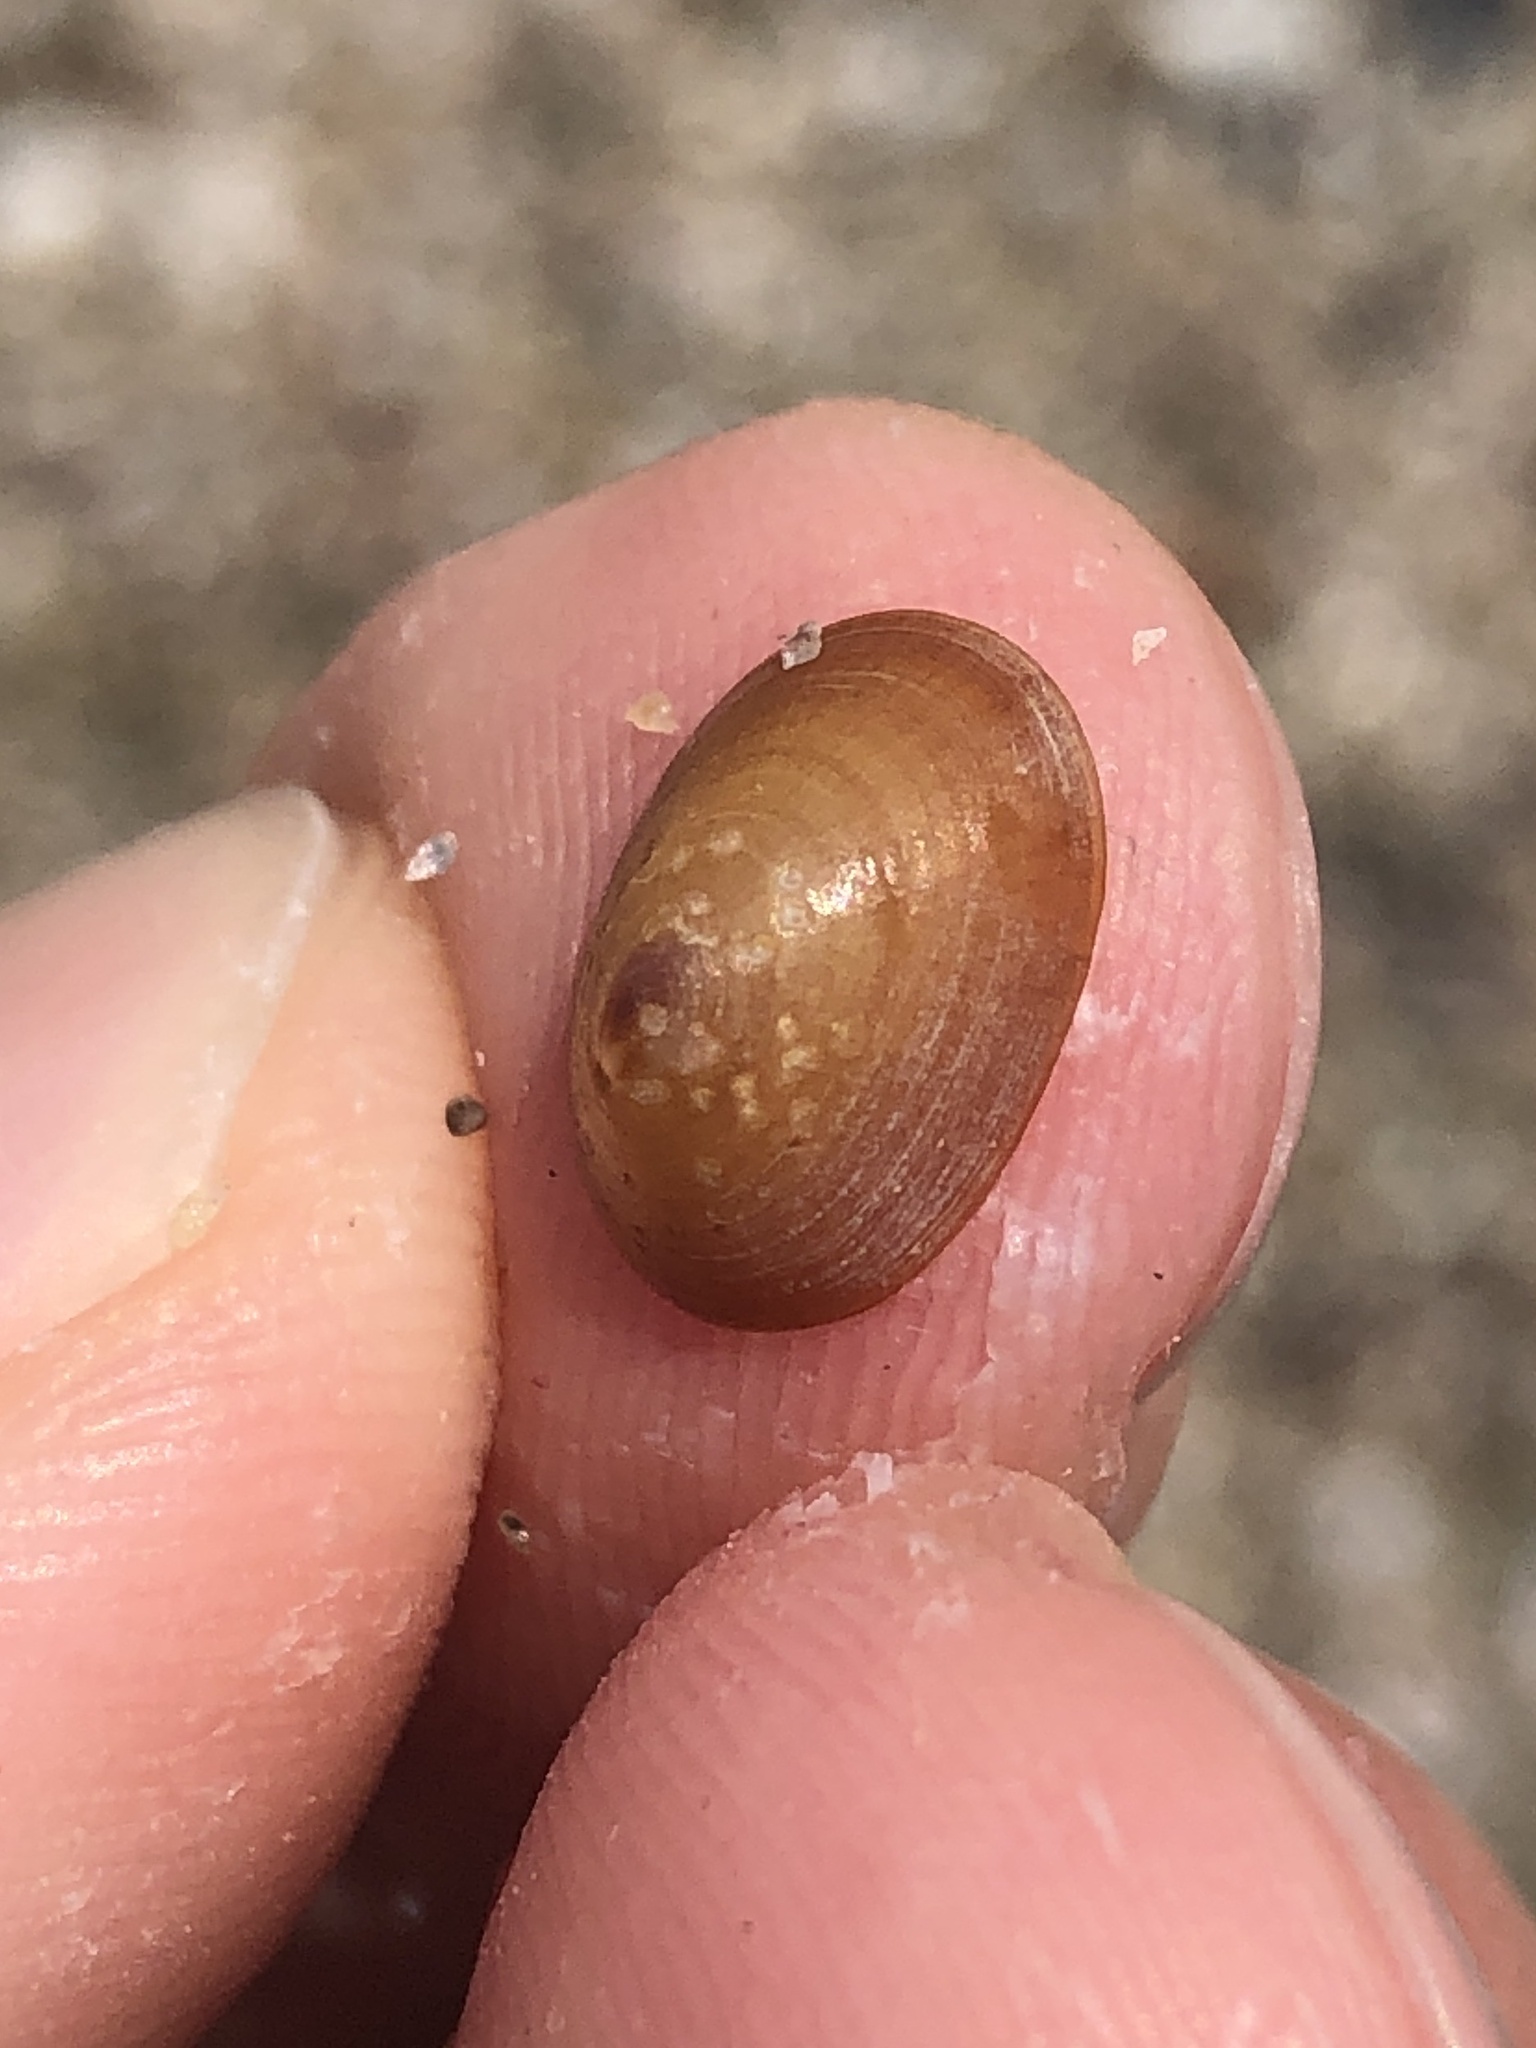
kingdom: Animalia
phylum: Mollusca
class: Gastropoda
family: Lottiidae
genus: Discurria
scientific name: Discurria insessa
